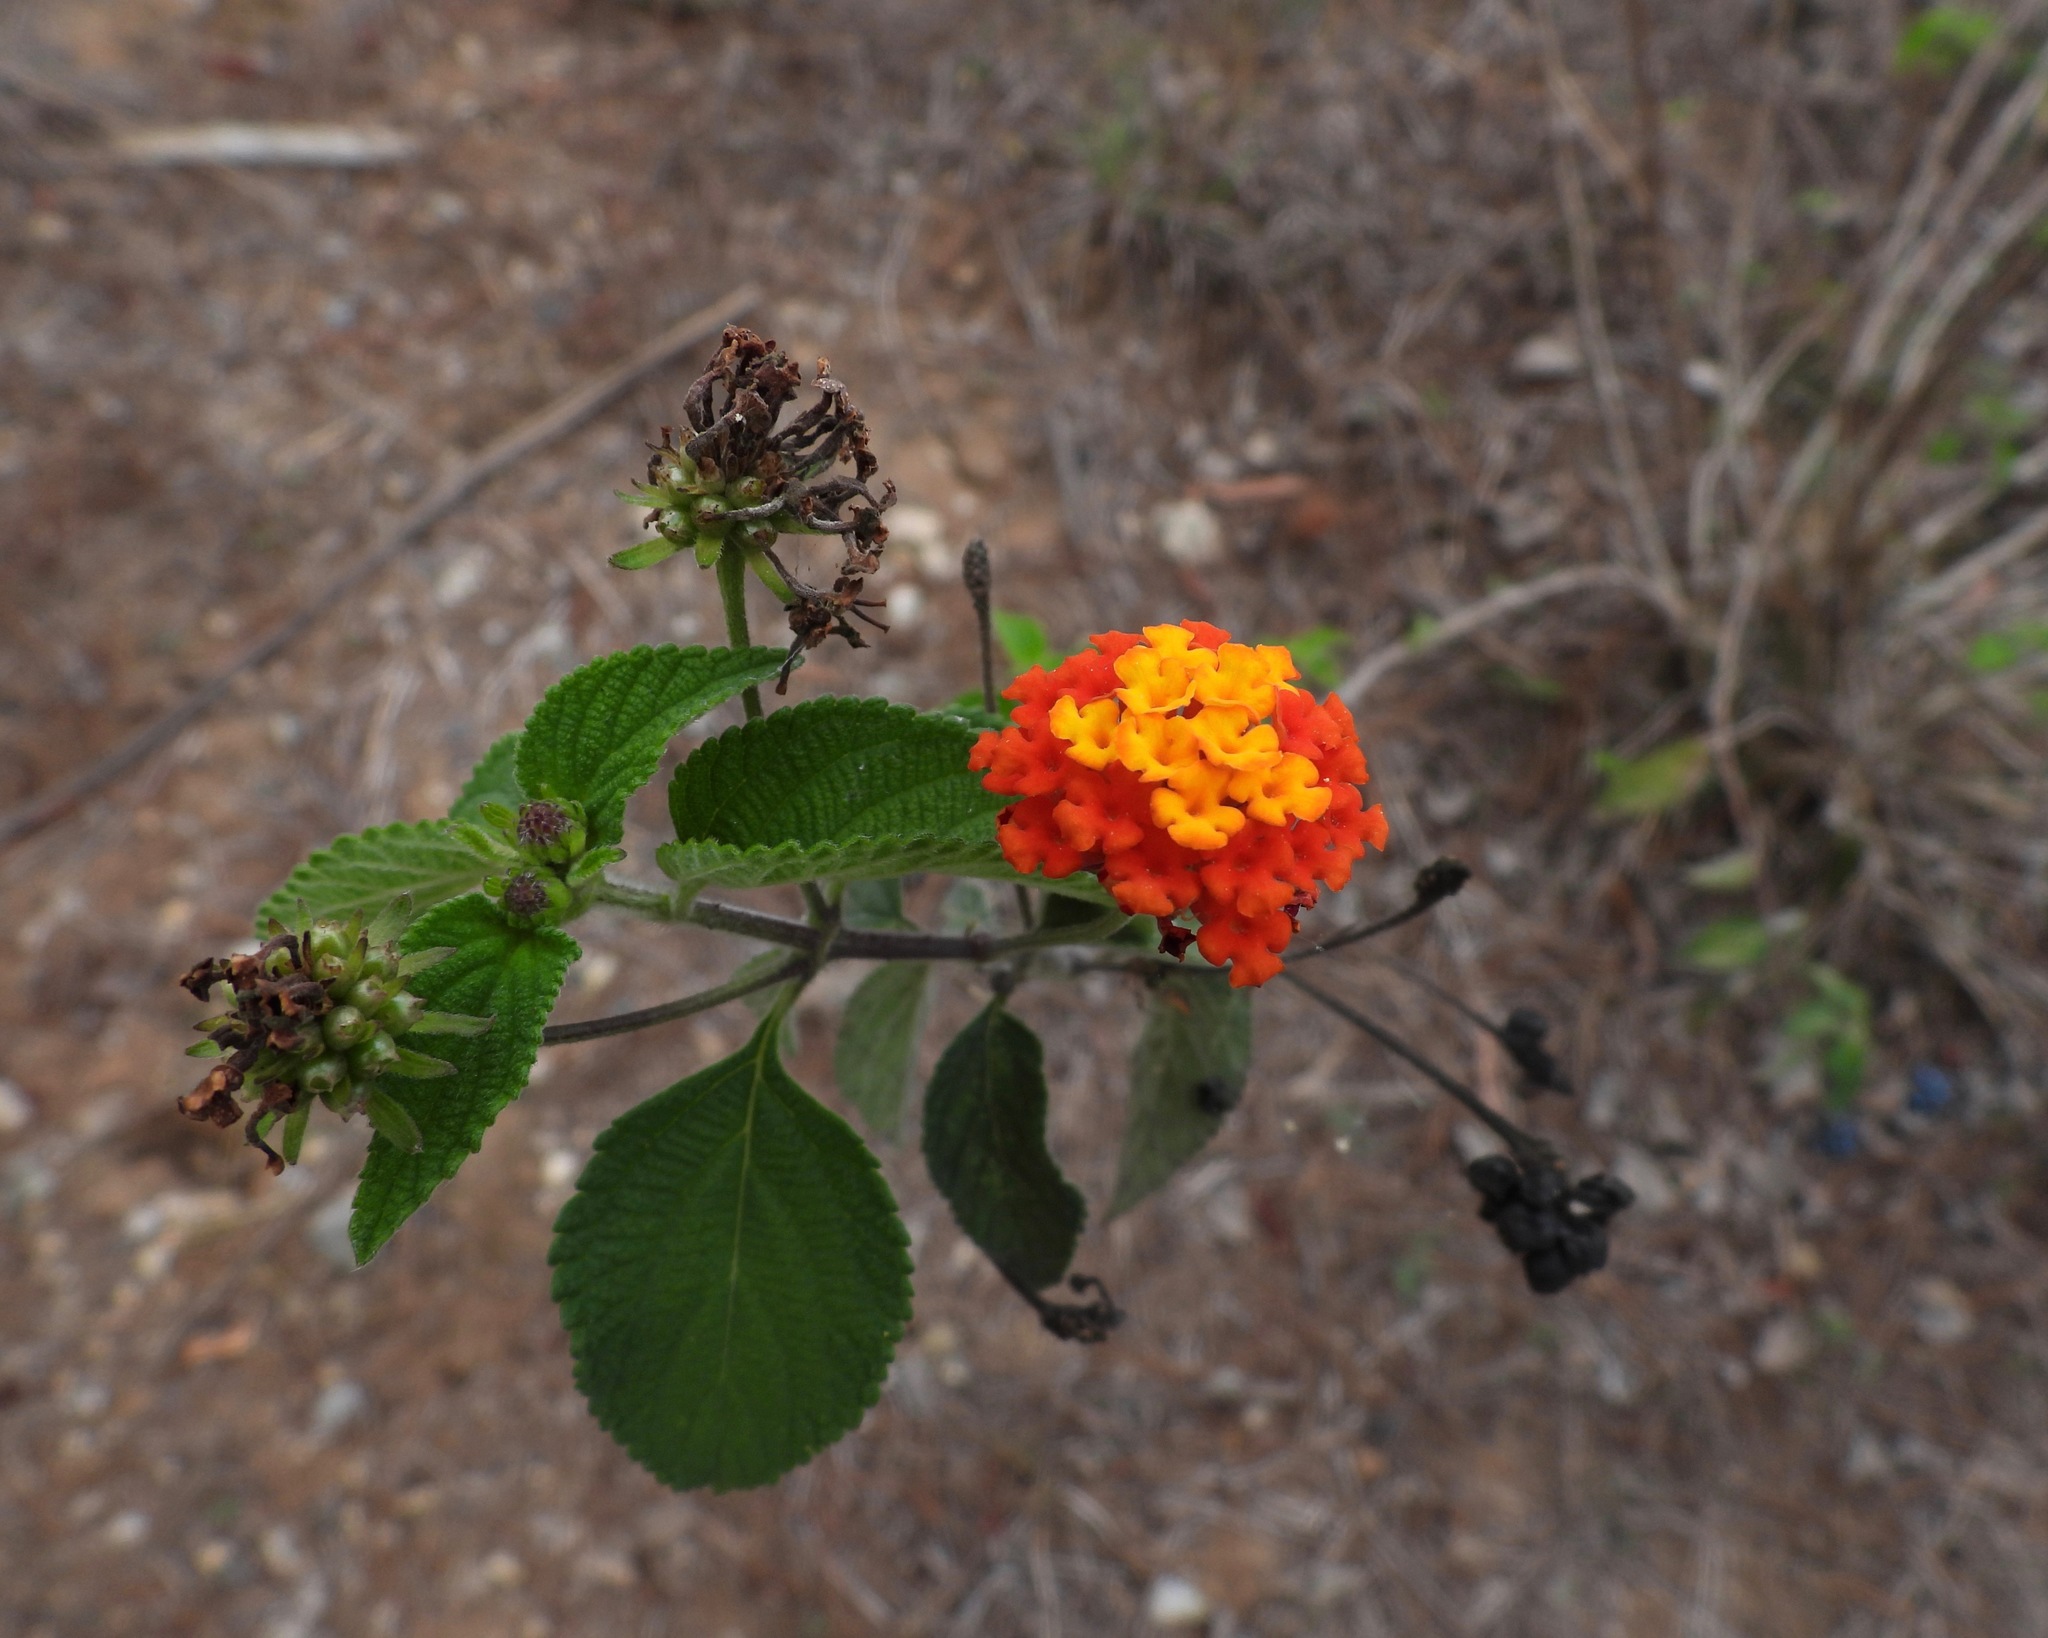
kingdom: Plantae
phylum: Tracheophyta
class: Magnoliopsida
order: Lamiales
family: Verbenaceae
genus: Lantana
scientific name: Lantana camara
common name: Lantana
